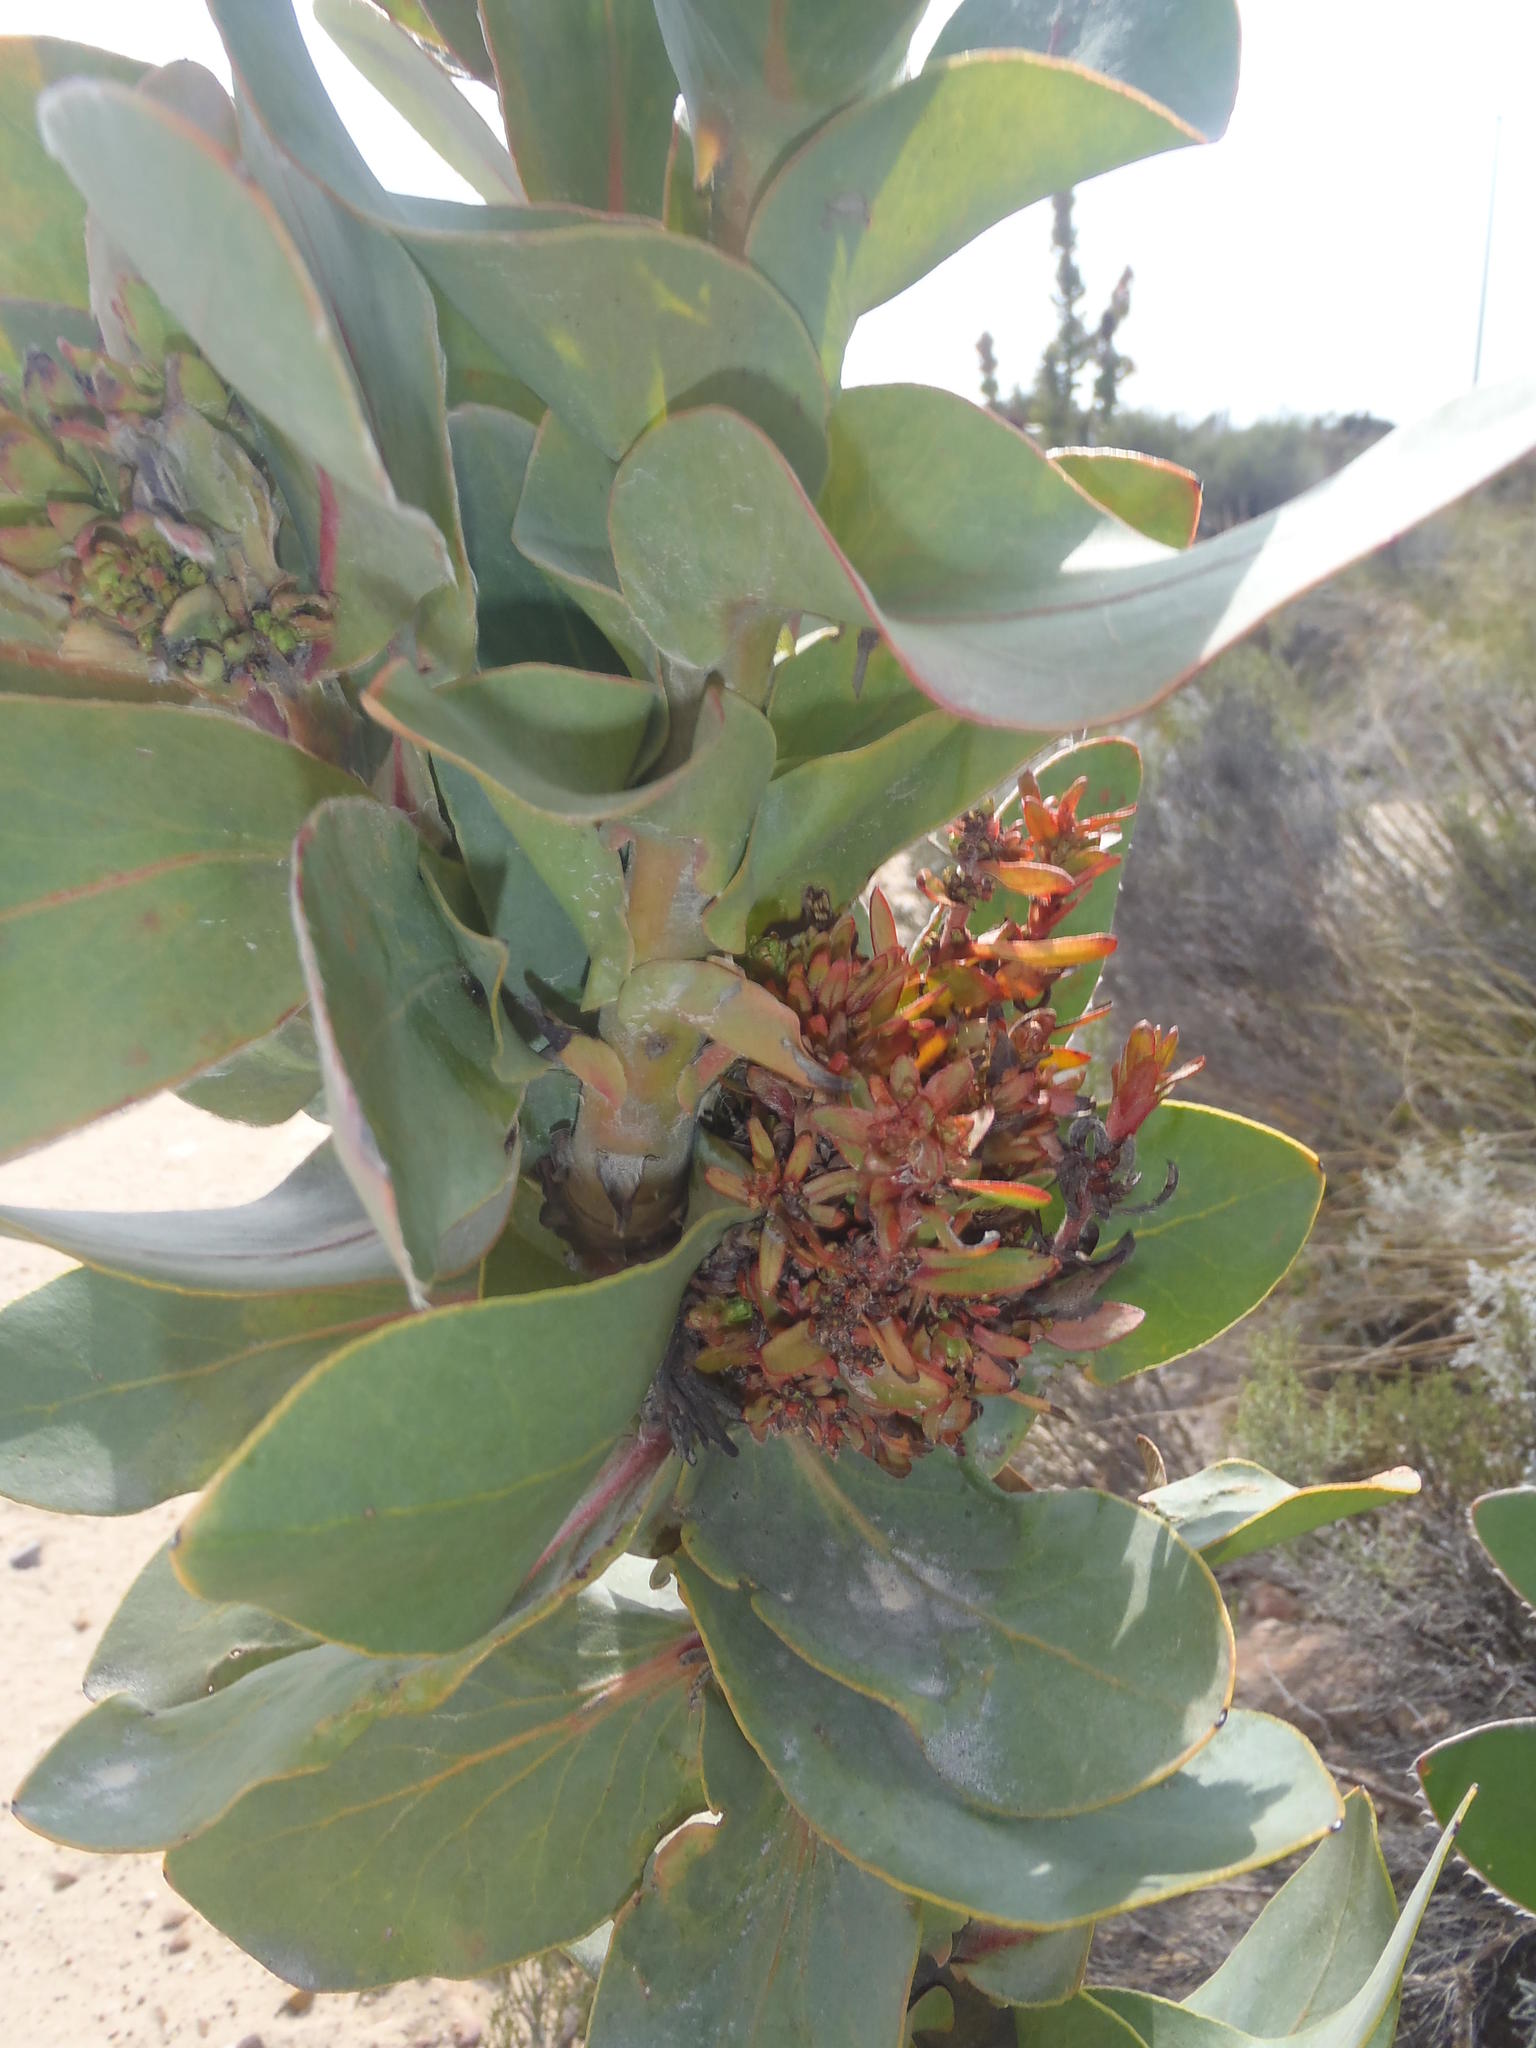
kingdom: Bacteria
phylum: Firmicutes
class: Bacilli
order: Acholeplasmatales
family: Acholeplasmataceae
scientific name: Acholeplasmataceae
